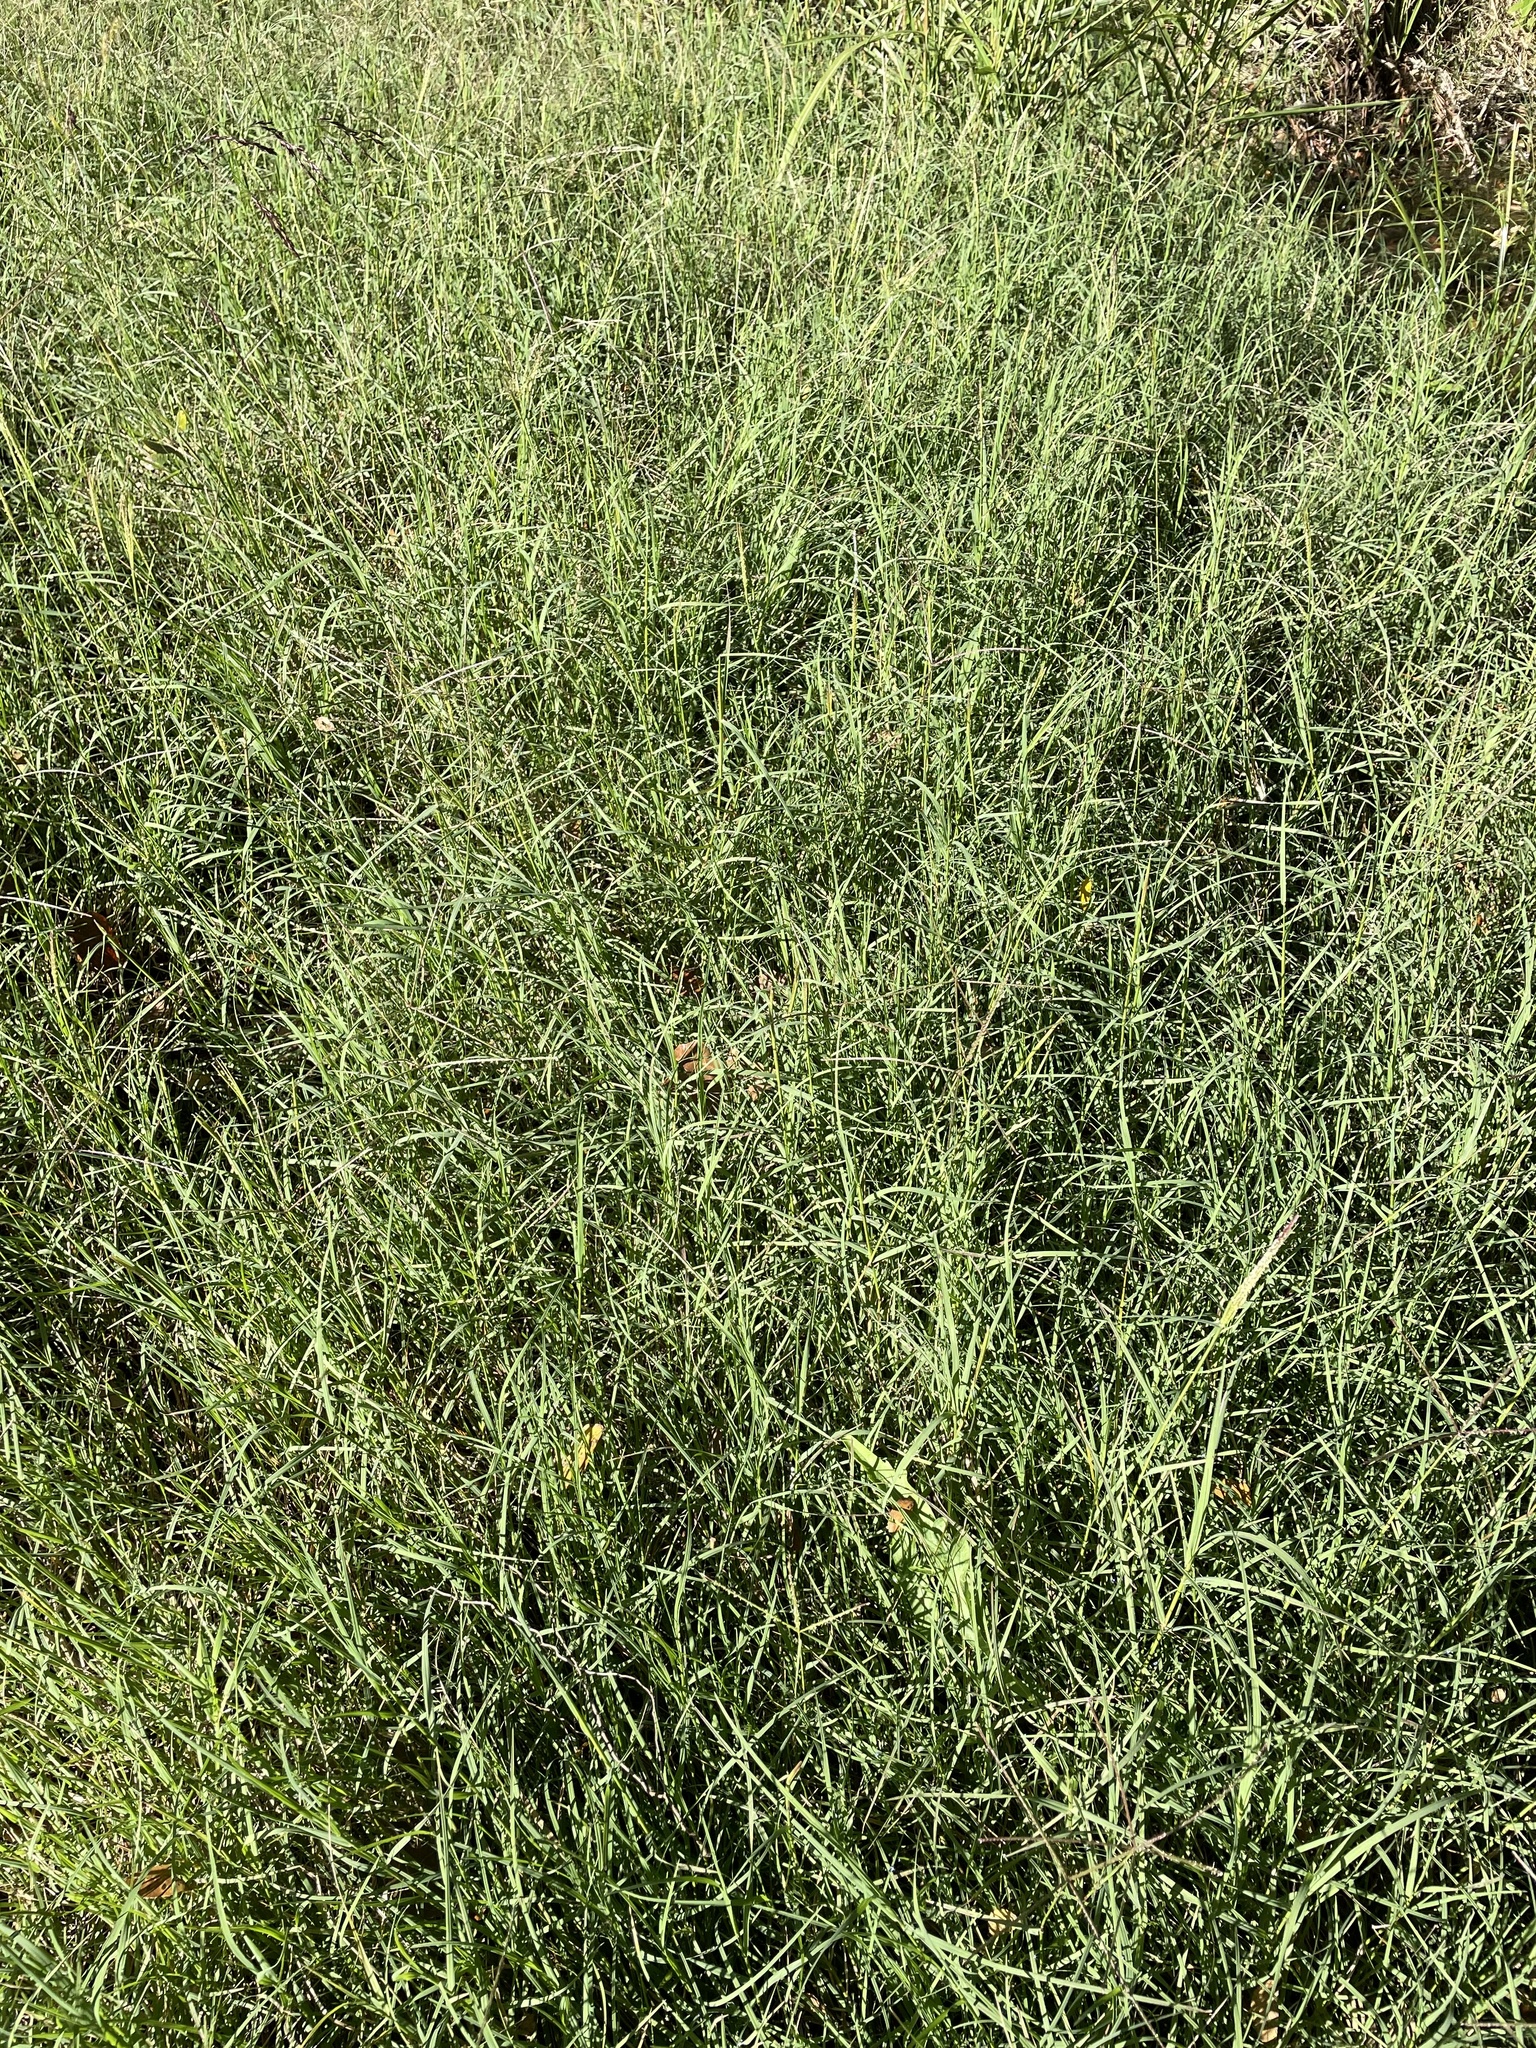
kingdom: Plantae
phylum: Tracheophyta
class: Liliopsida
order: Poales
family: Poaceae
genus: Cynodon
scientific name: Cynodon dactylon
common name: Bermuda grass
